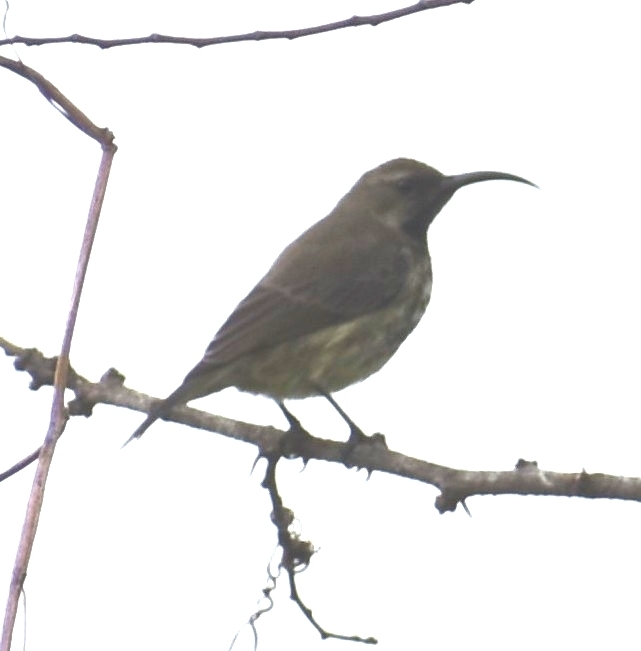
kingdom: Animalia
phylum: Chordata
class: Aves
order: Passeriformes
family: Nectariniidae
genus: Chalcomitra
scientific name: Chalcomitra amethystina
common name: Amethyst sunbird
